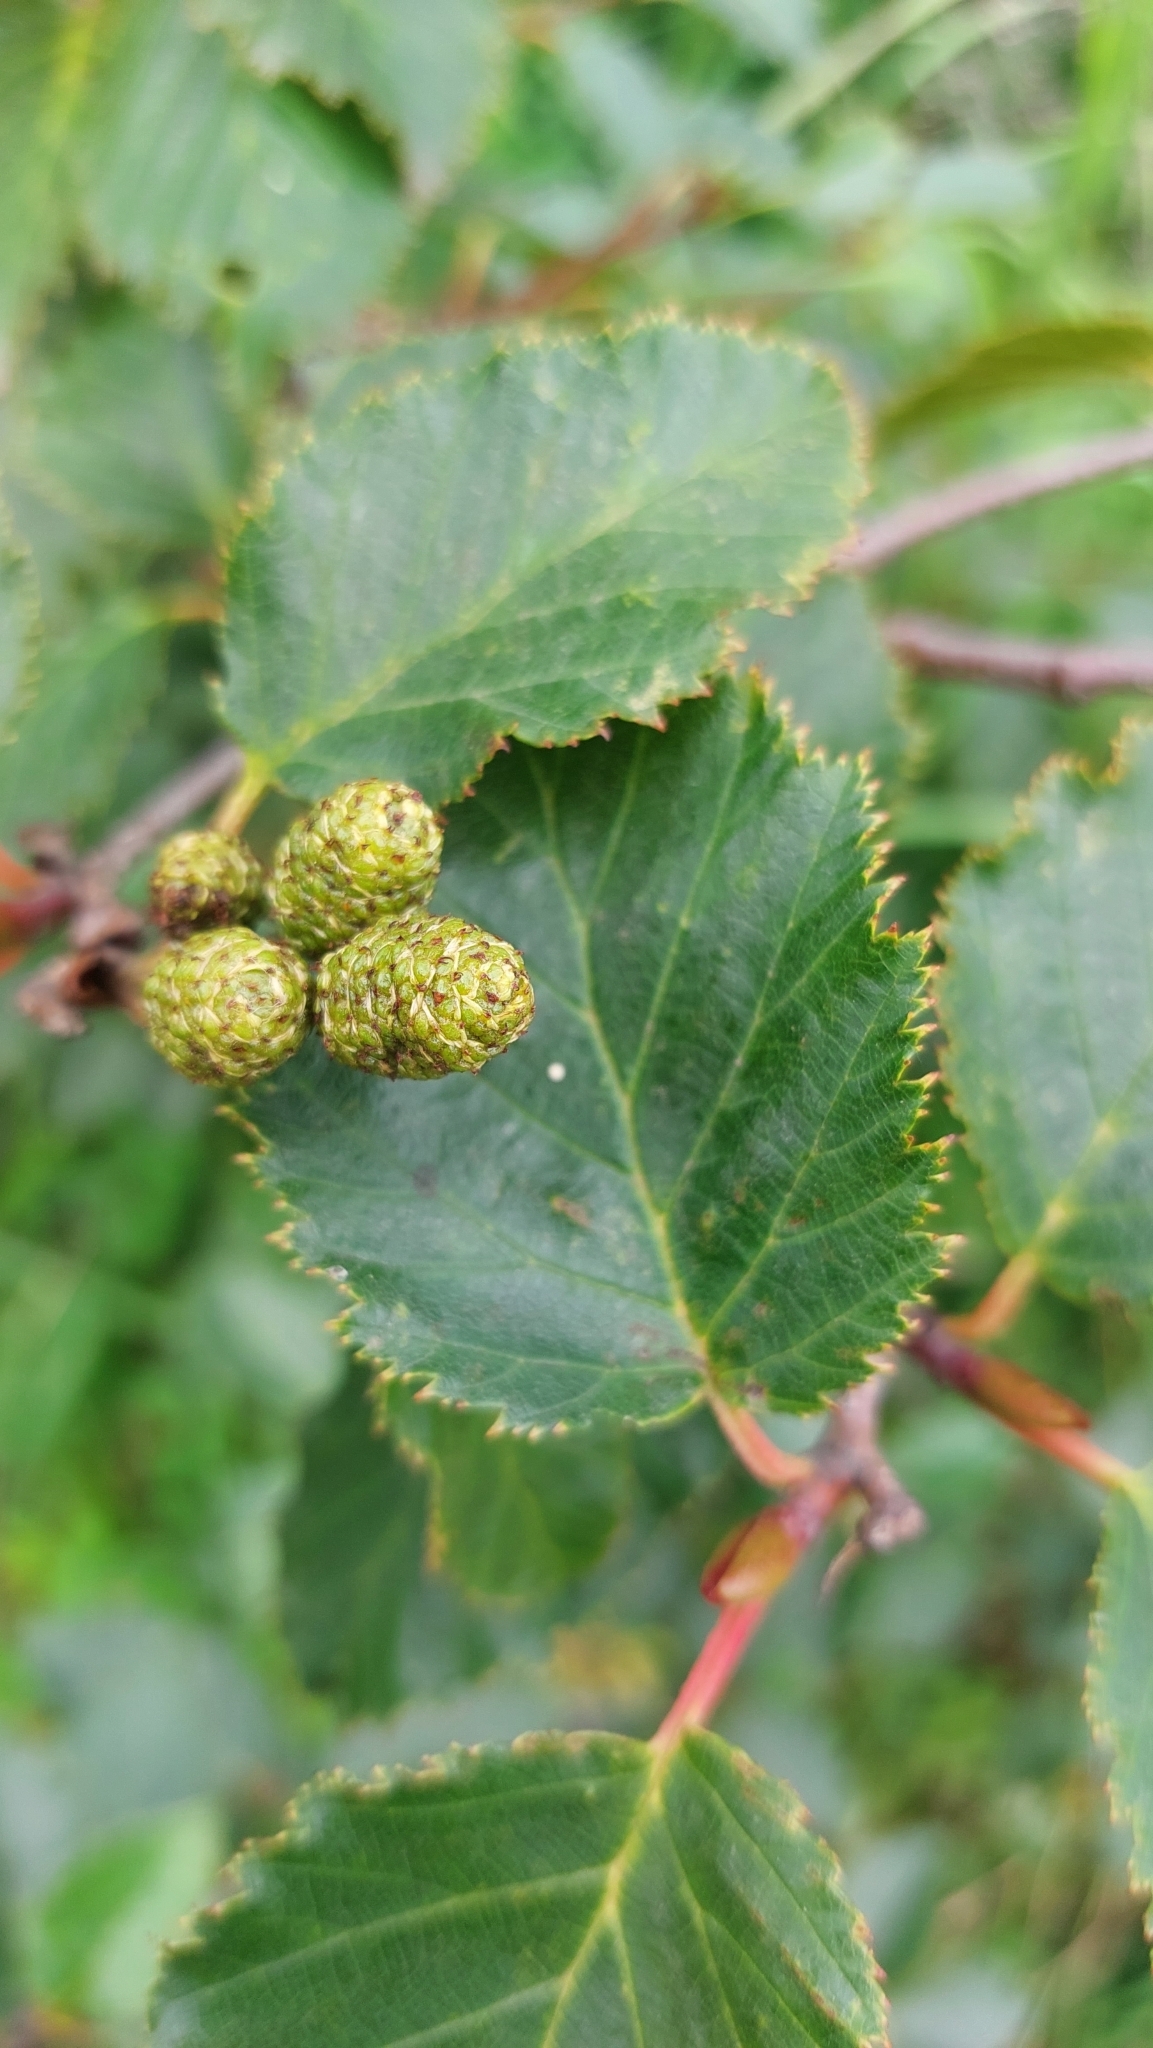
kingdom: Plantae
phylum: Tracheophyta
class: Magnoliopsida
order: Fagales
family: Betulaceae
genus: Alnus
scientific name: Alnus alnobetula
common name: Green alder
